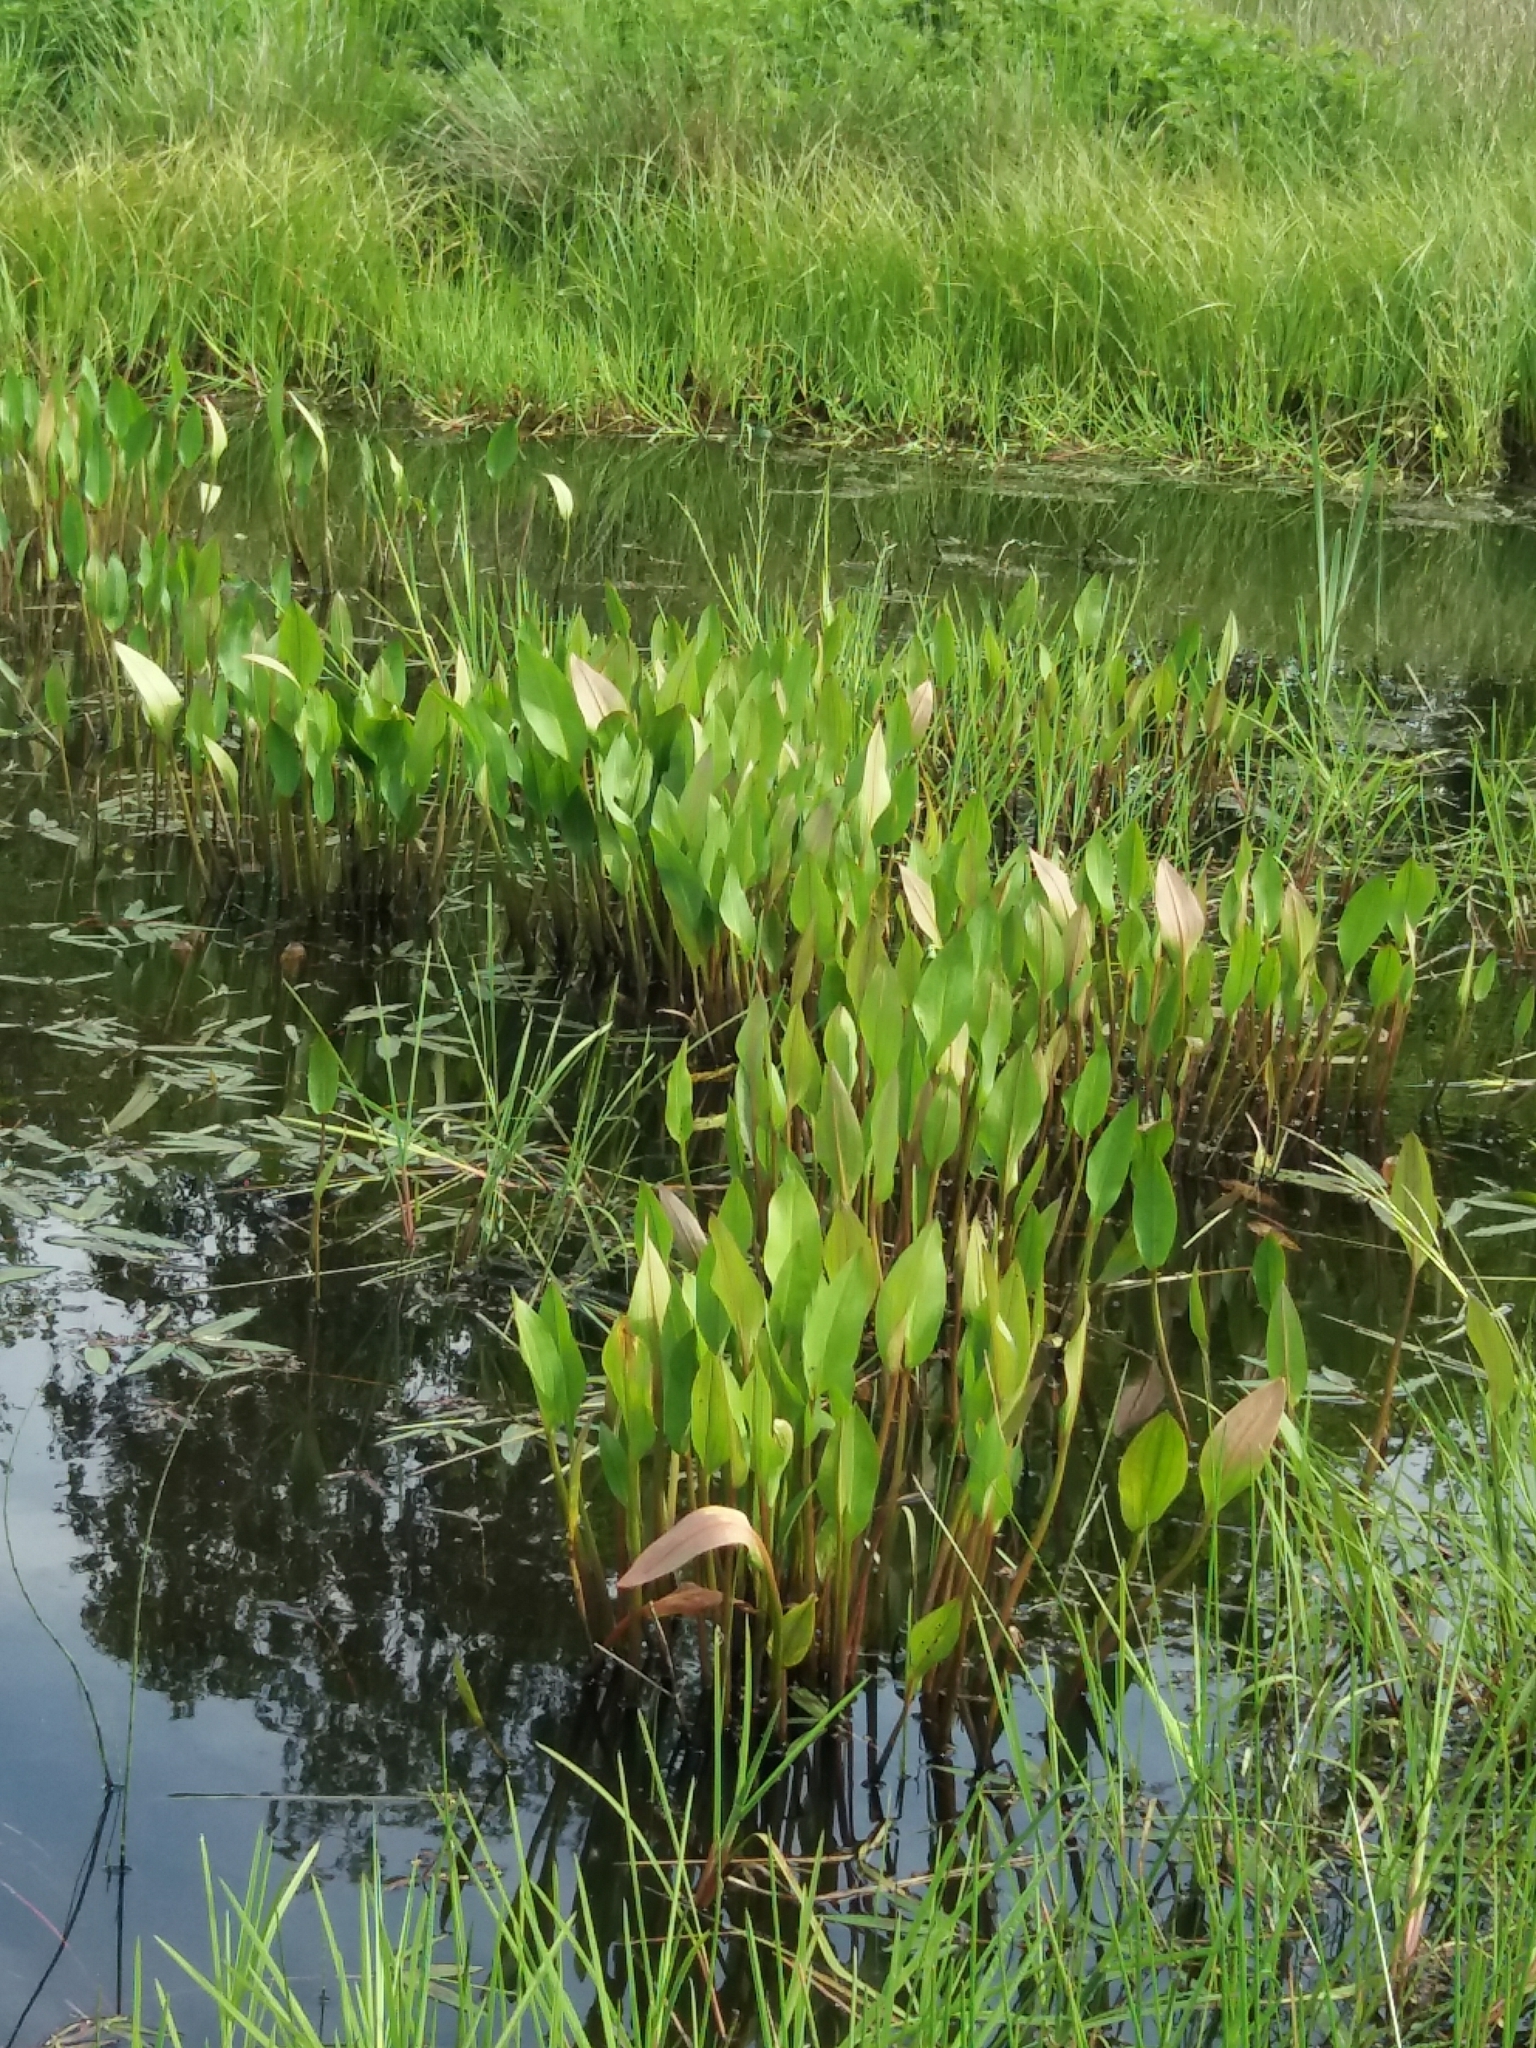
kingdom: Plantae
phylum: Tracheophyta
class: Liliopsida
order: Alismatales
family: Alismataceae
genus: Alisma
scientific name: Alisma plantago-aquatica
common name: Water-plantain
